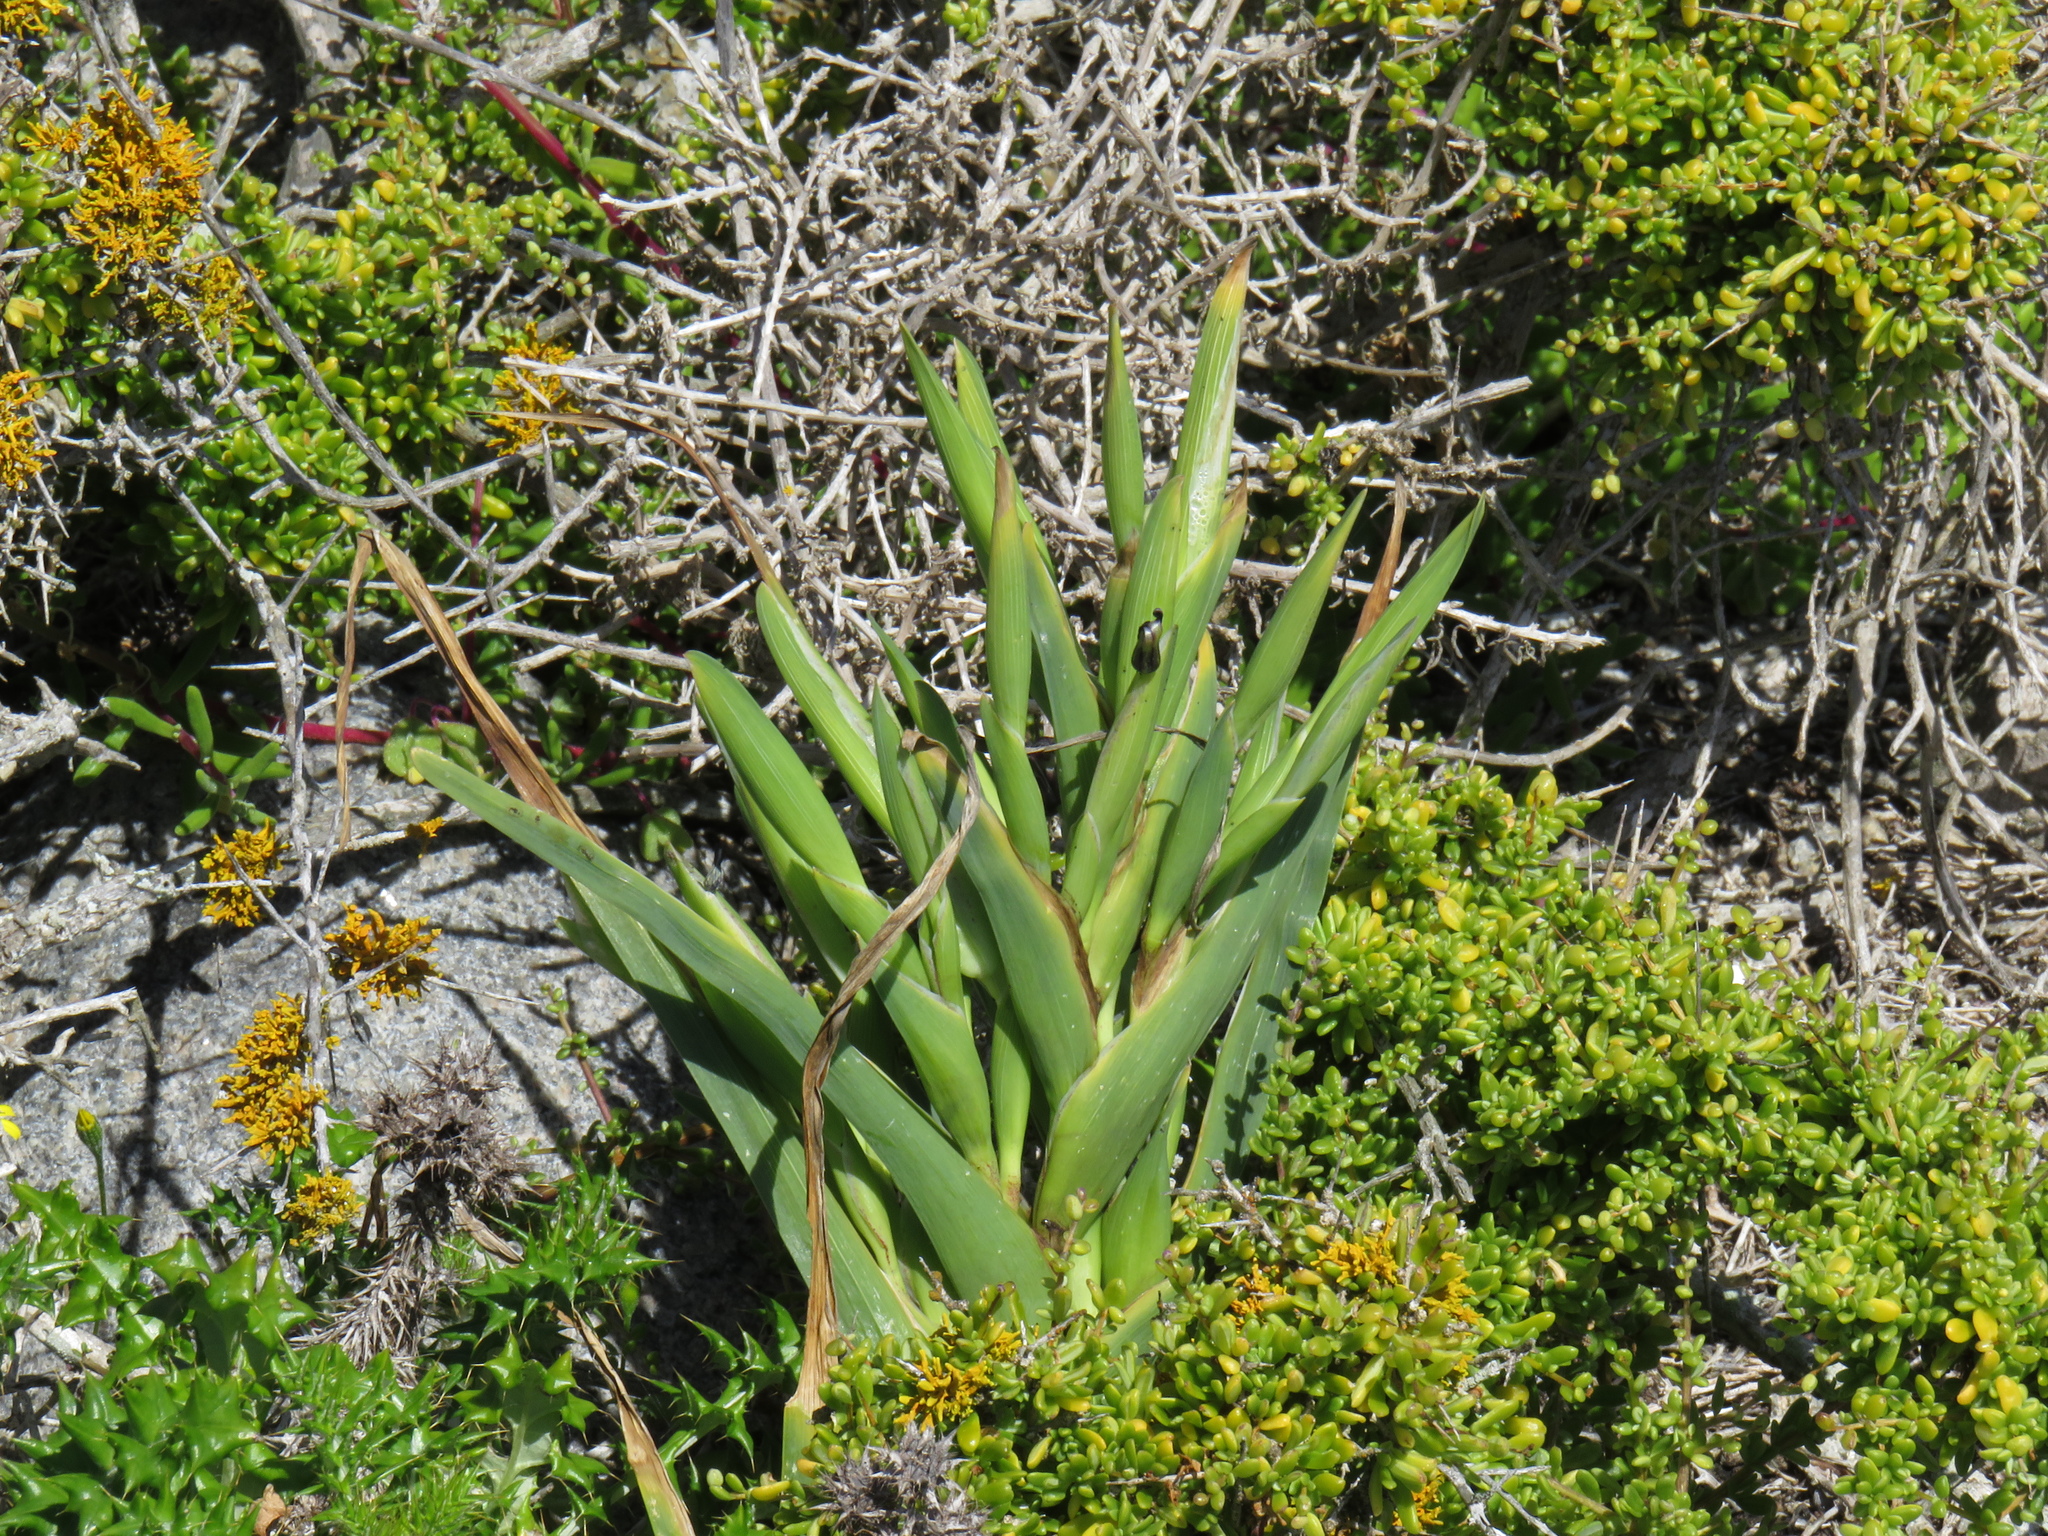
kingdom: Plantae
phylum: Tracheophyta
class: Liliopsida
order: Asparagales
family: Iridaceae
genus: Ferraria
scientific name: Ferraria crispa
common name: Black-flag
